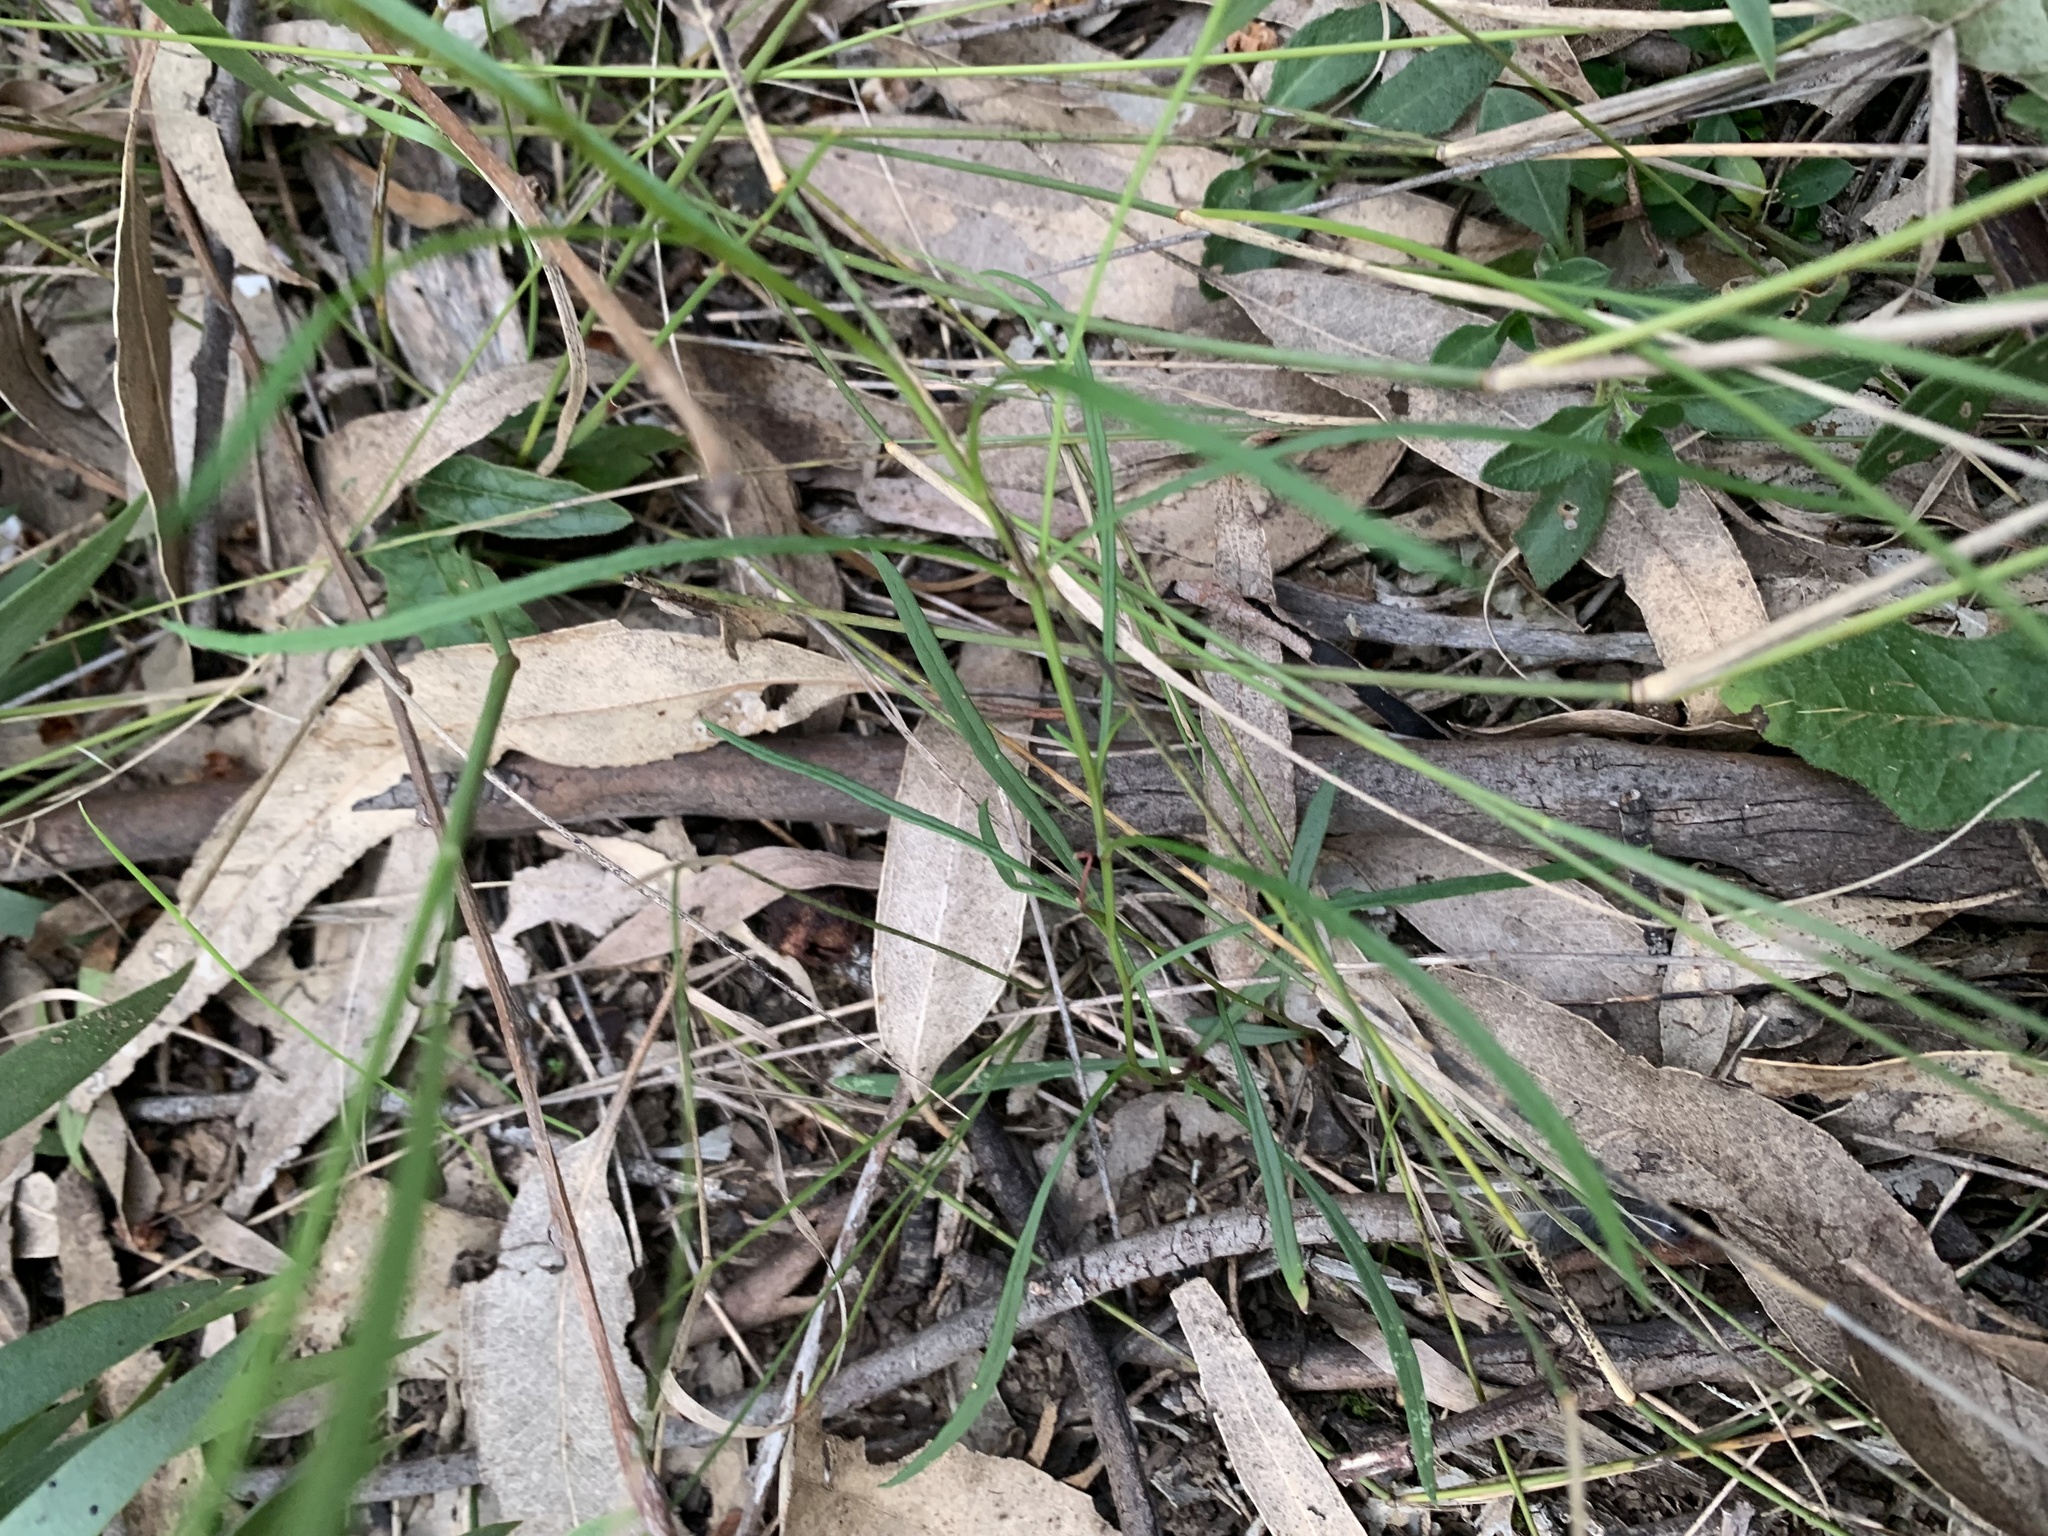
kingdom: Plantae
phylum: Tracheophyta
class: Magnoliopsida
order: Asterales
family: Asteraceae
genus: Brachyscome
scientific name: Brachyscome graminea
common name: Grass daisy
